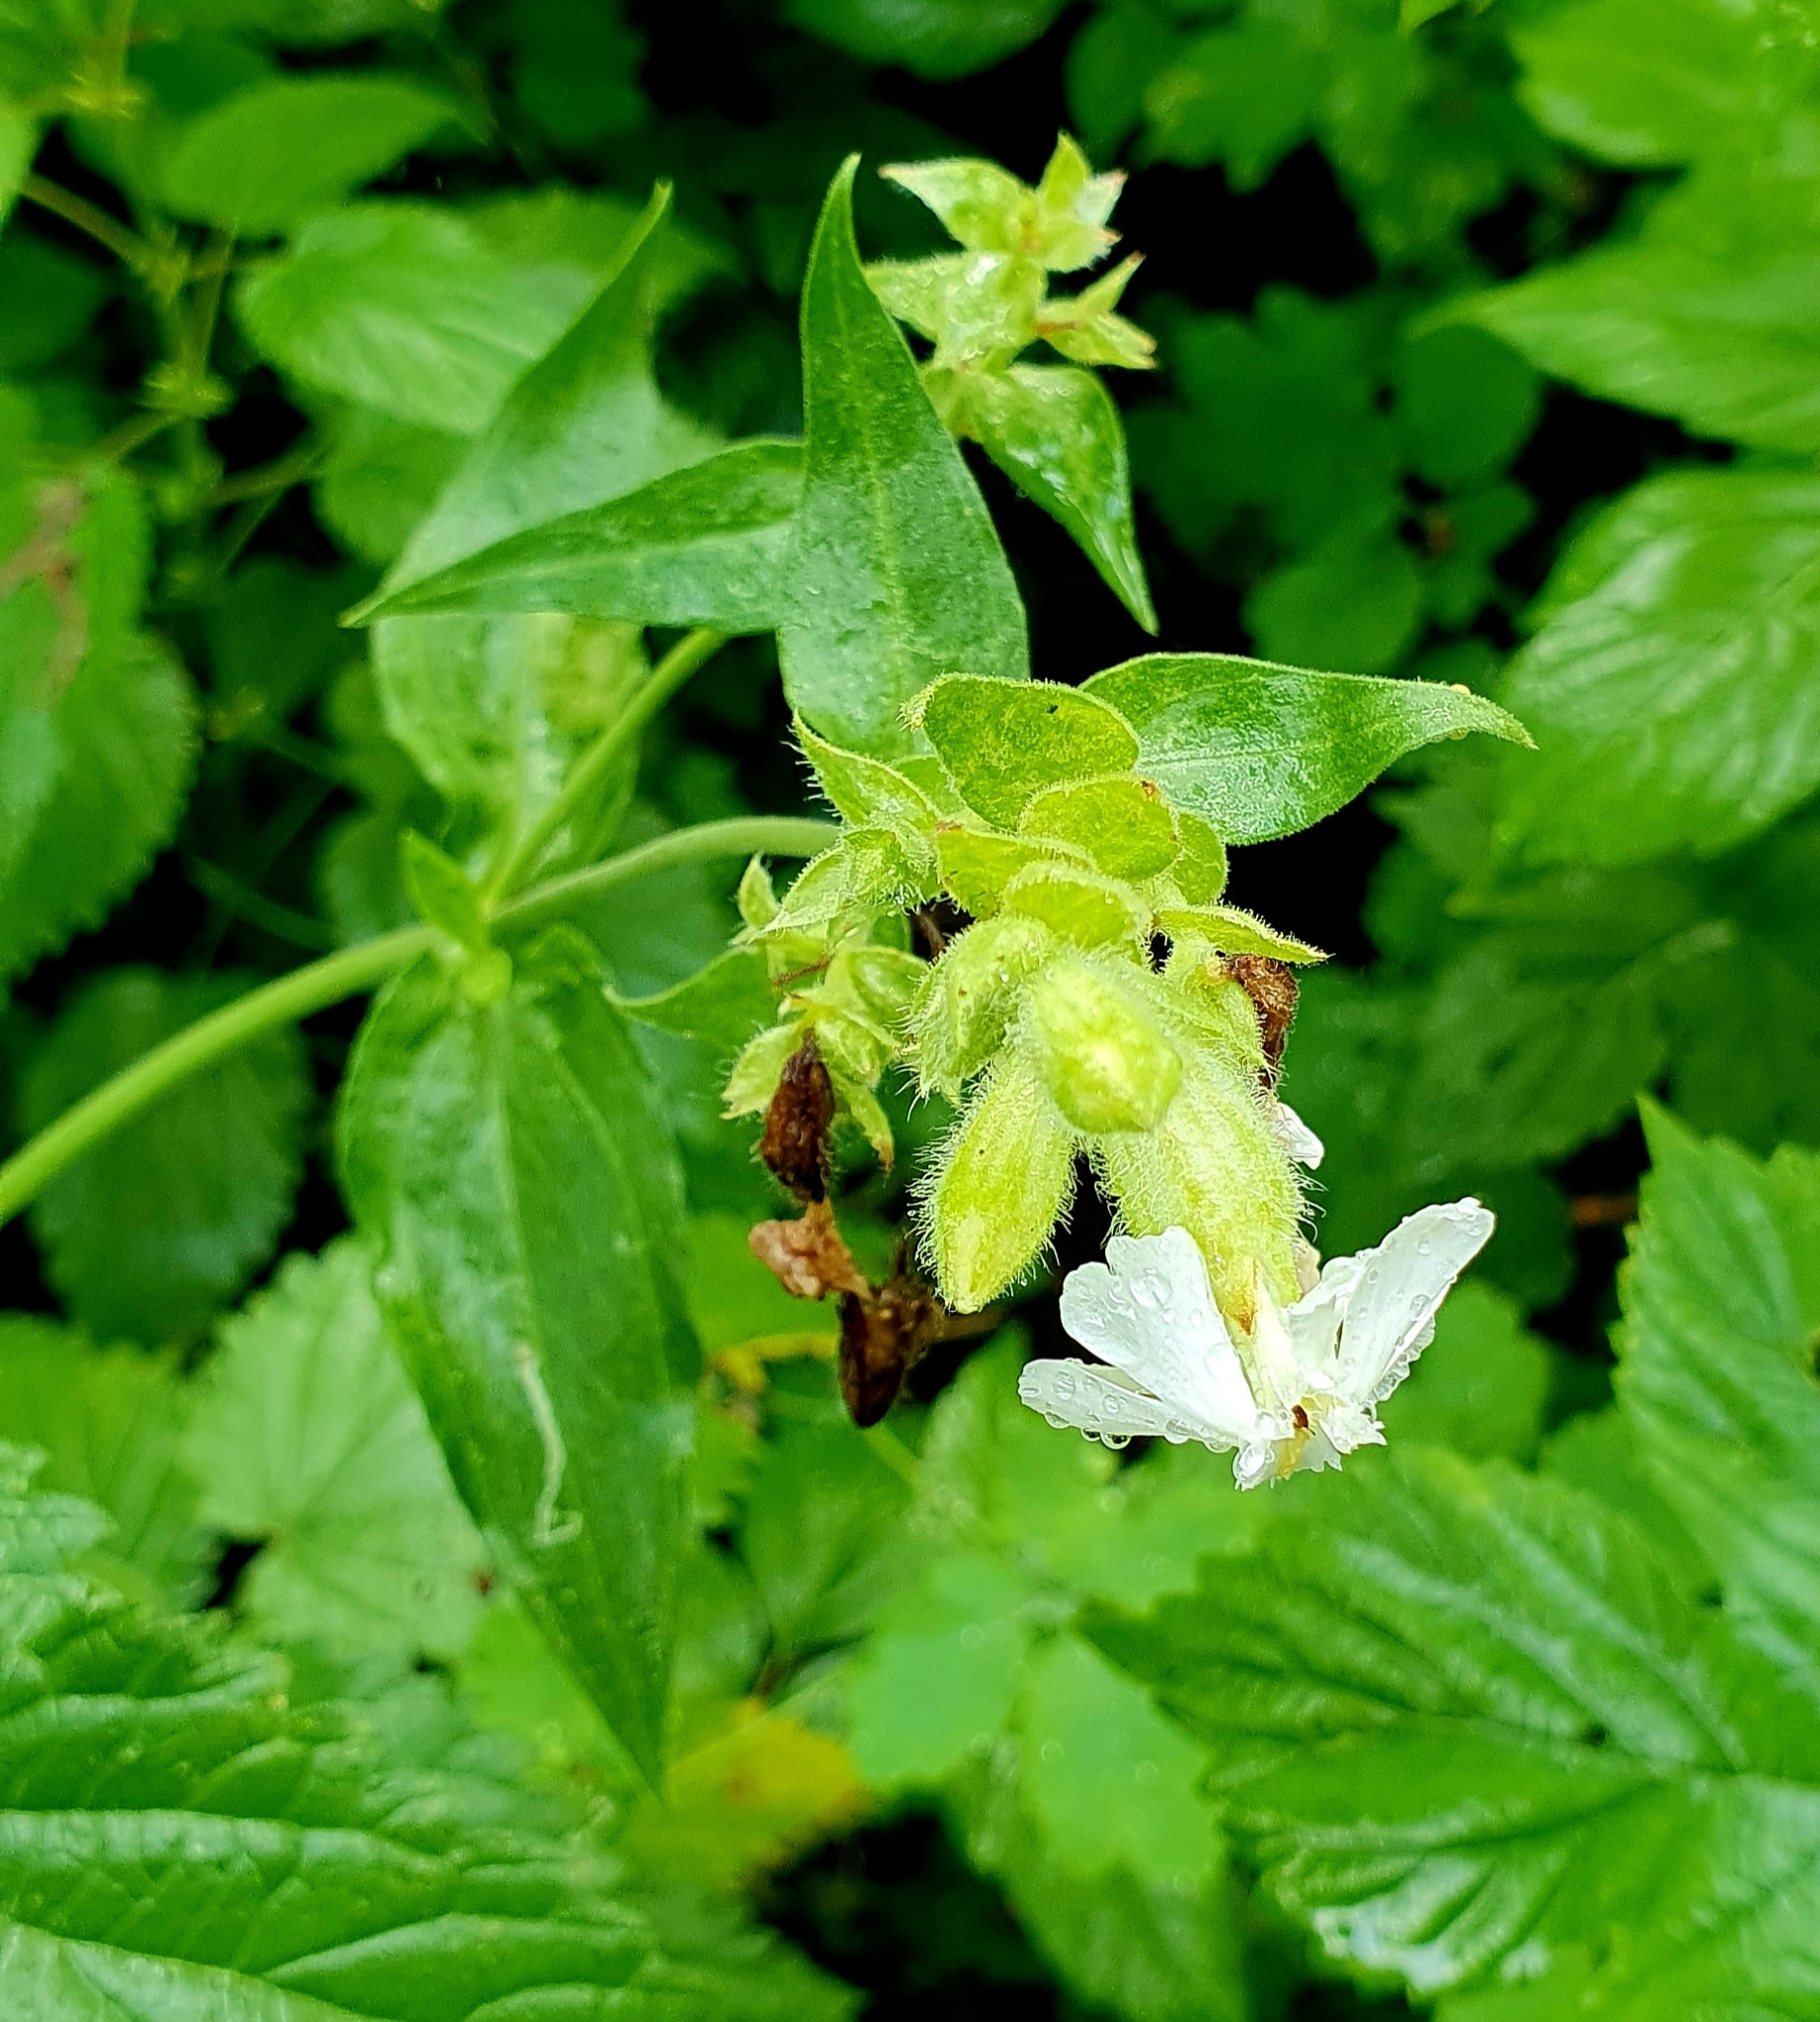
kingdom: Plantae
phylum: Tracheophyta
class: Magnoliopsida
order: Caryophyllales
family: Caryophyllaceae
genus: Silene
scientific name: Silene latifolia
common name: White campion
